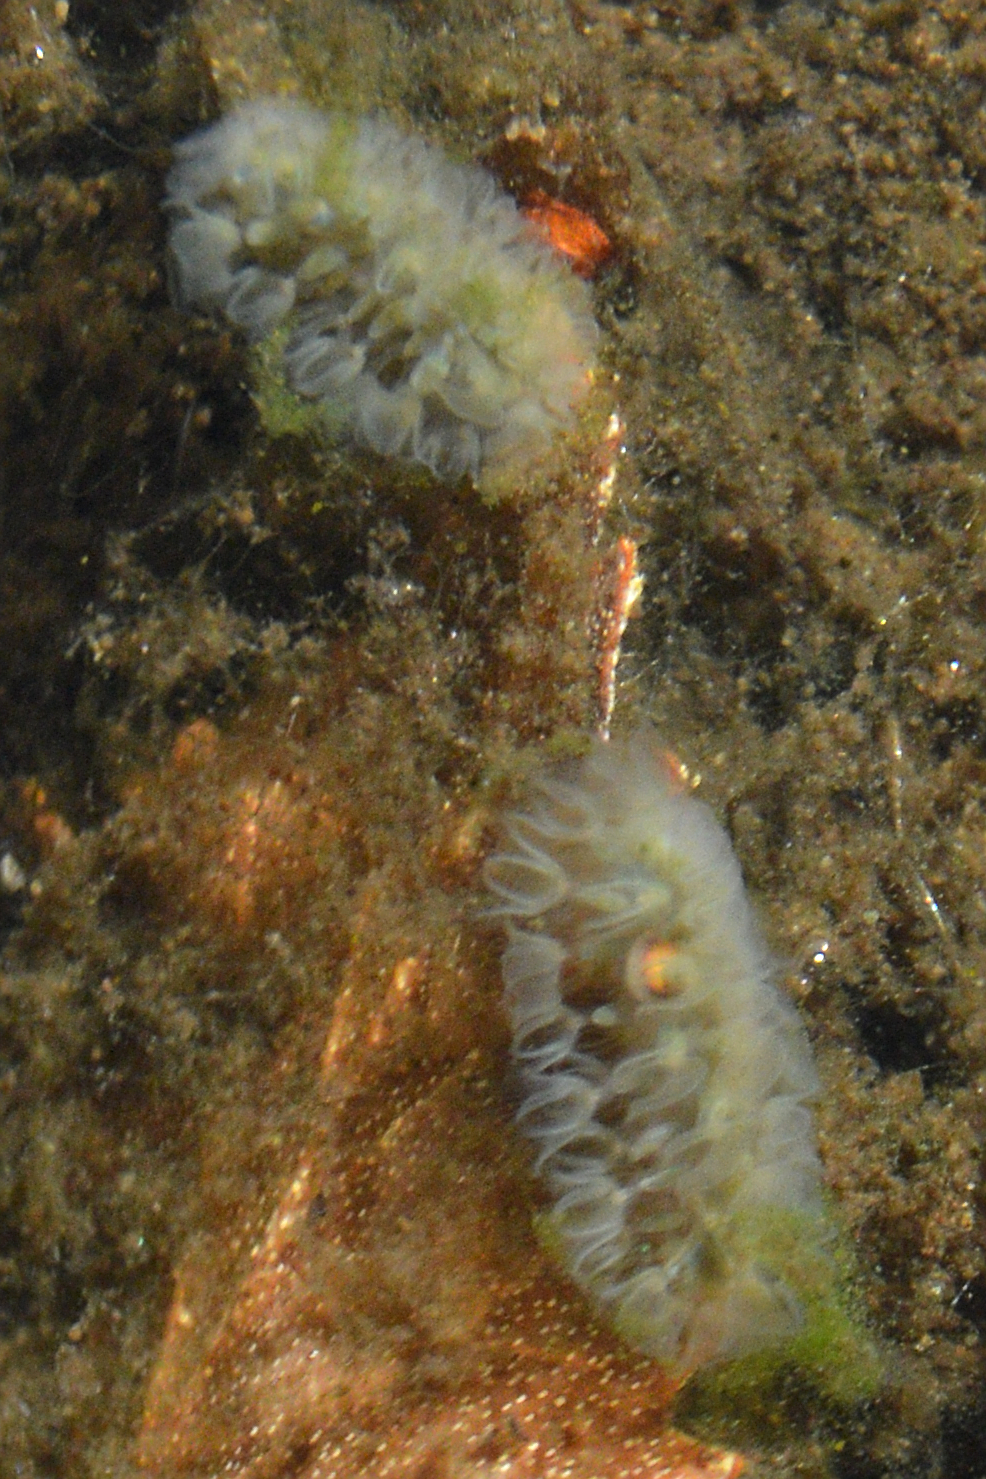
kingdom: Animalia
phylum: Bryozoa
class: Phylactolaemata
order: Plumatellida
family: Cristatellidae
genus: Cristatella
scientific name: Cristatella mucedo
